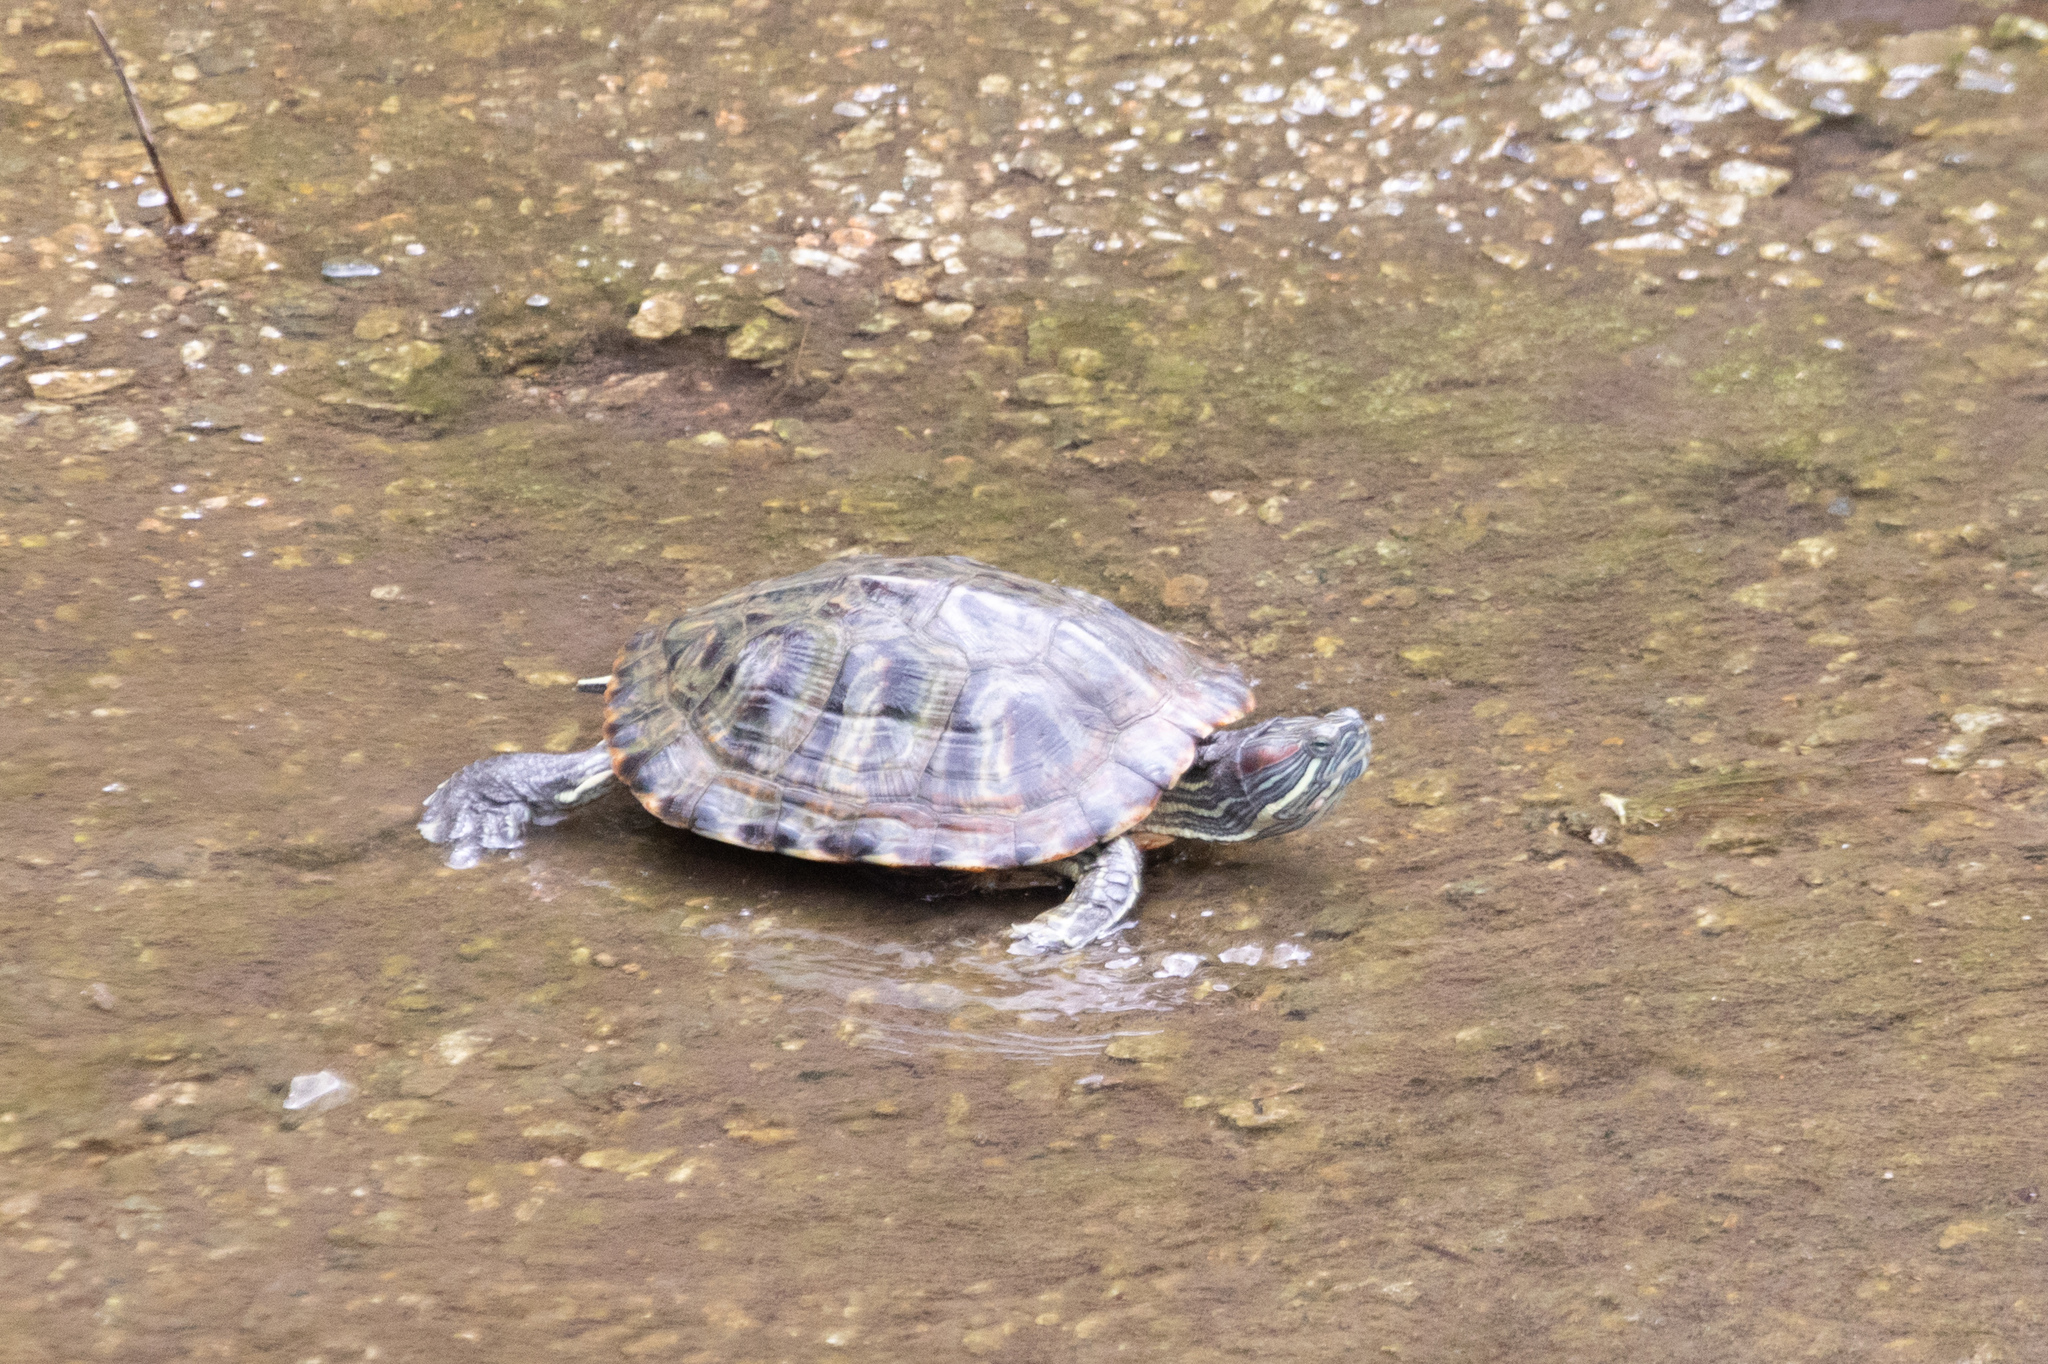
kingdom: Animalia
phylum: Chordata
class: Testudines
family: Emydidae
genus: Trachemys
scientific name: Trachemys scripta
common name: Slider
